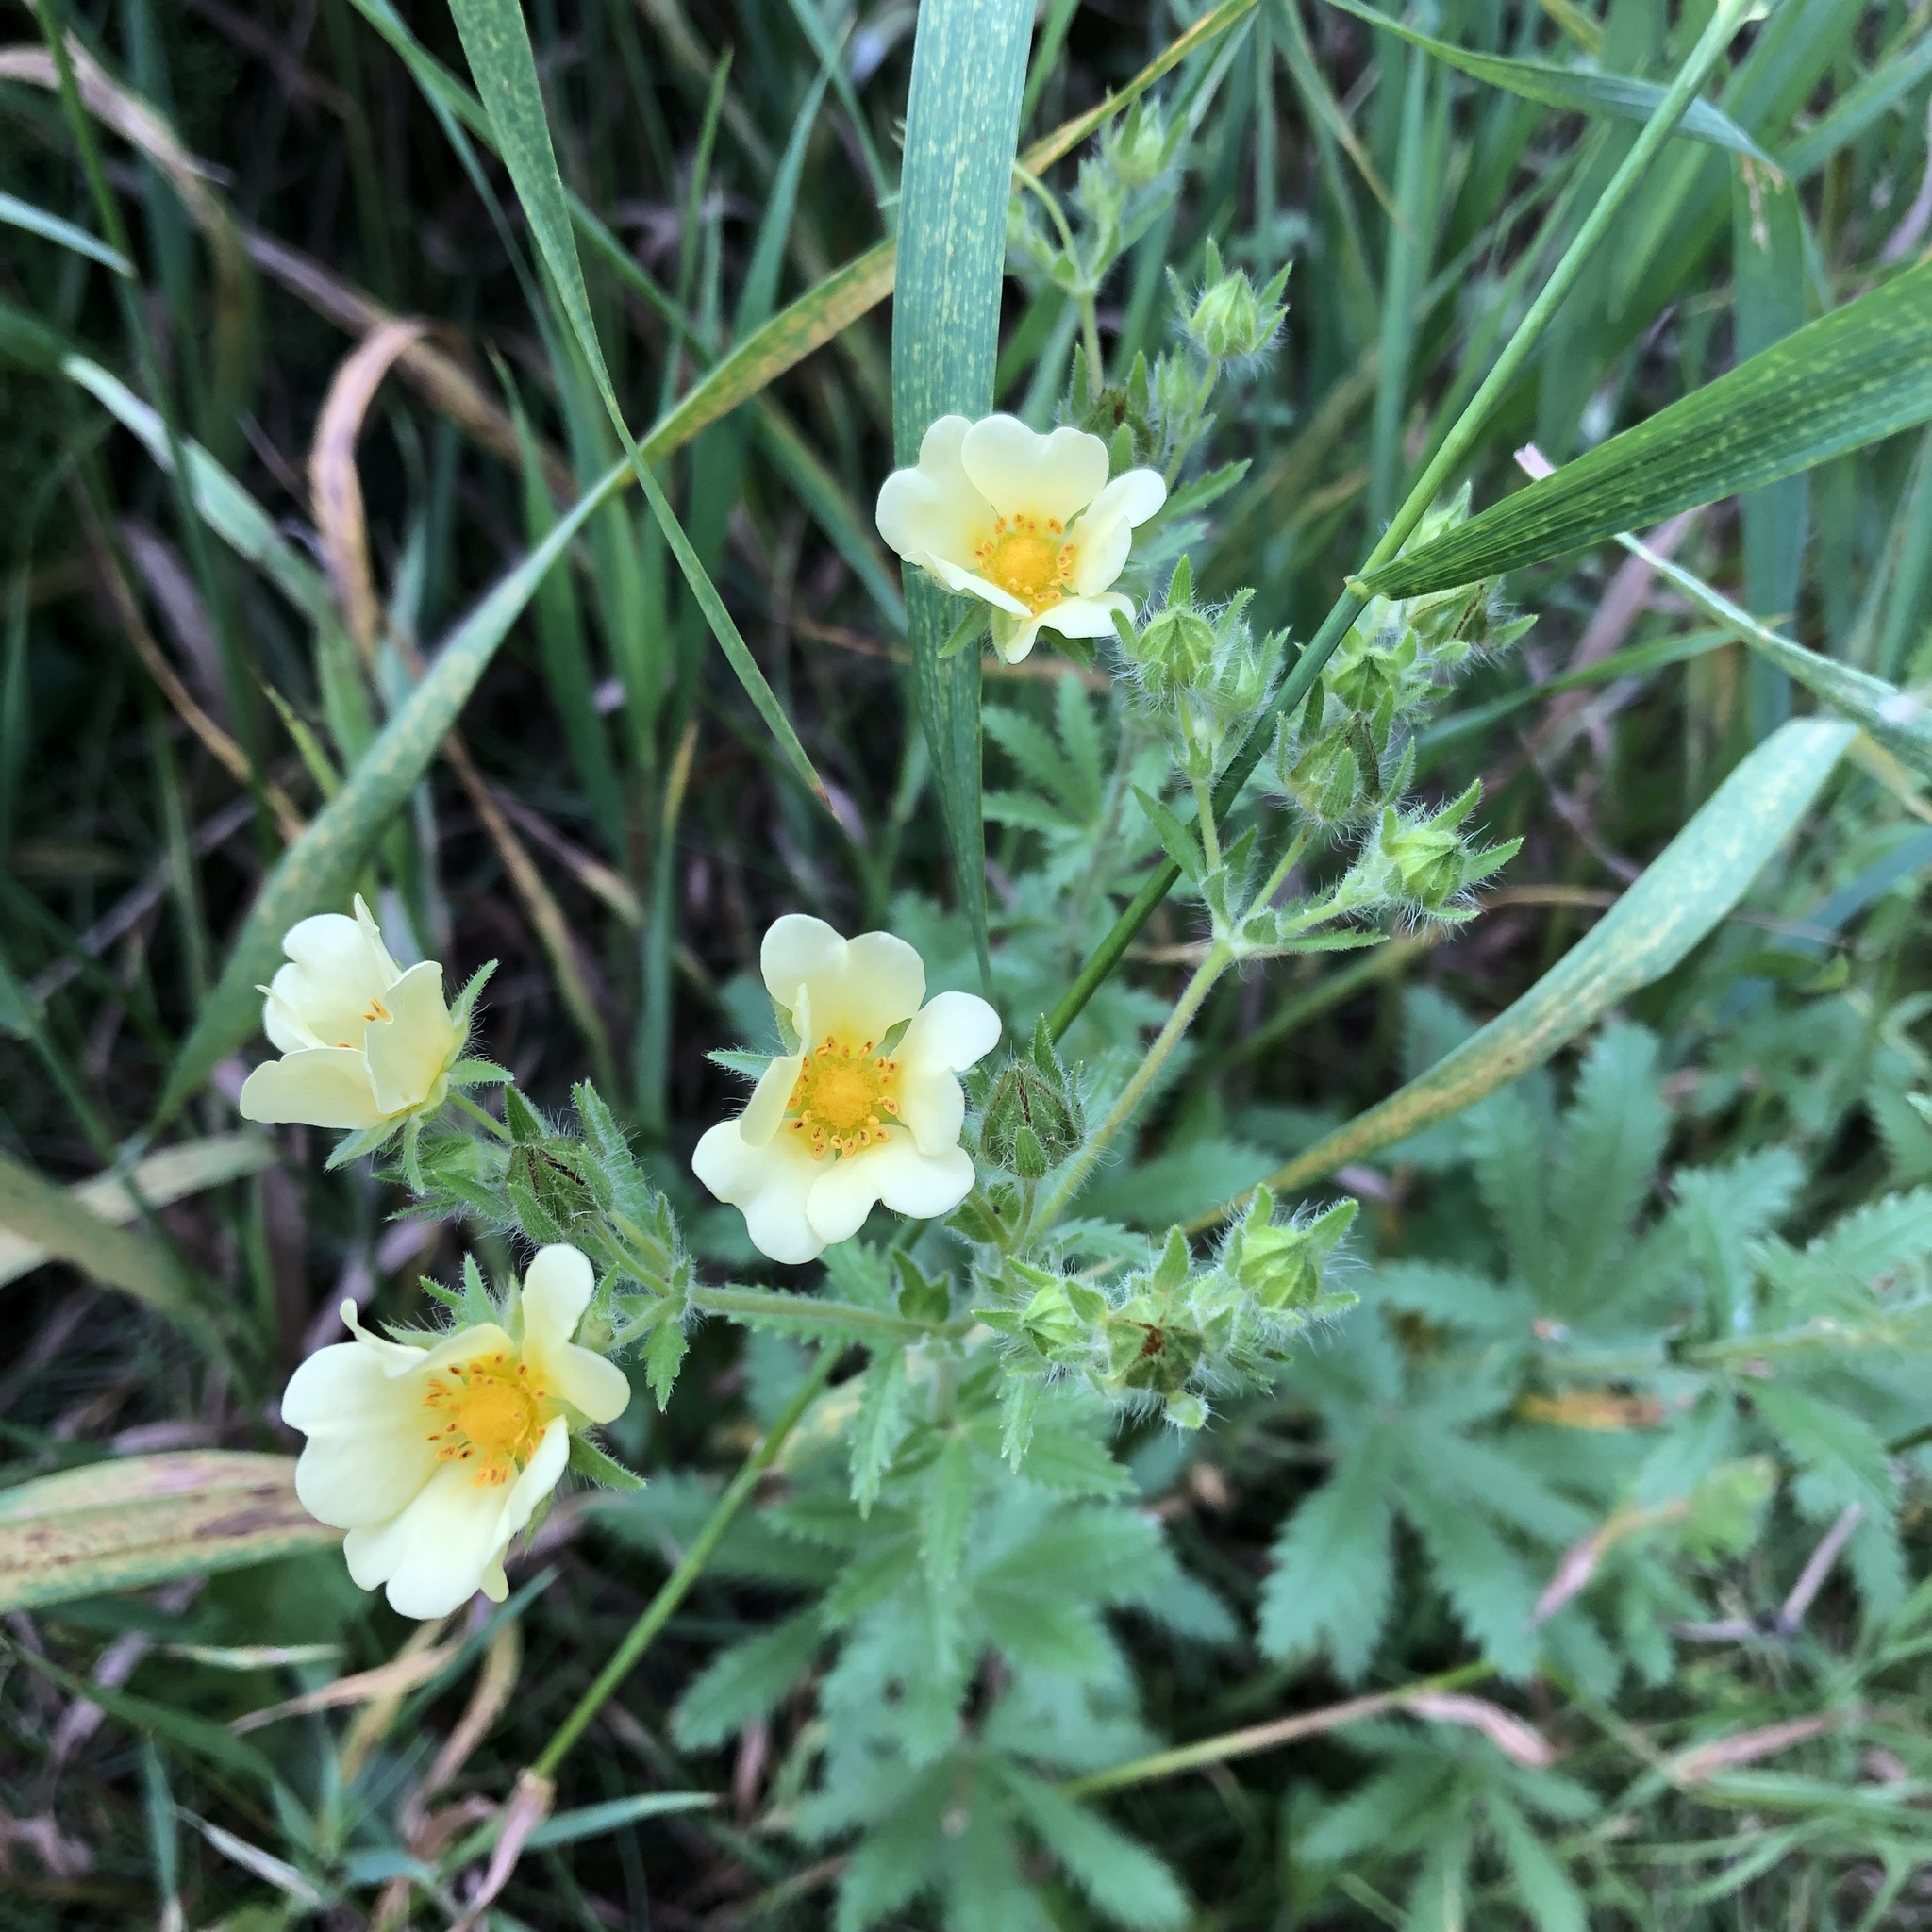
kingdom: Plantae
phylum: Tracheophyta
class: Magnoliopsida
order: Rosales
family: Rosaceae
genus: Potentilla
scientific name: Potentilla recta
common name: Sulphur cinquefoil
